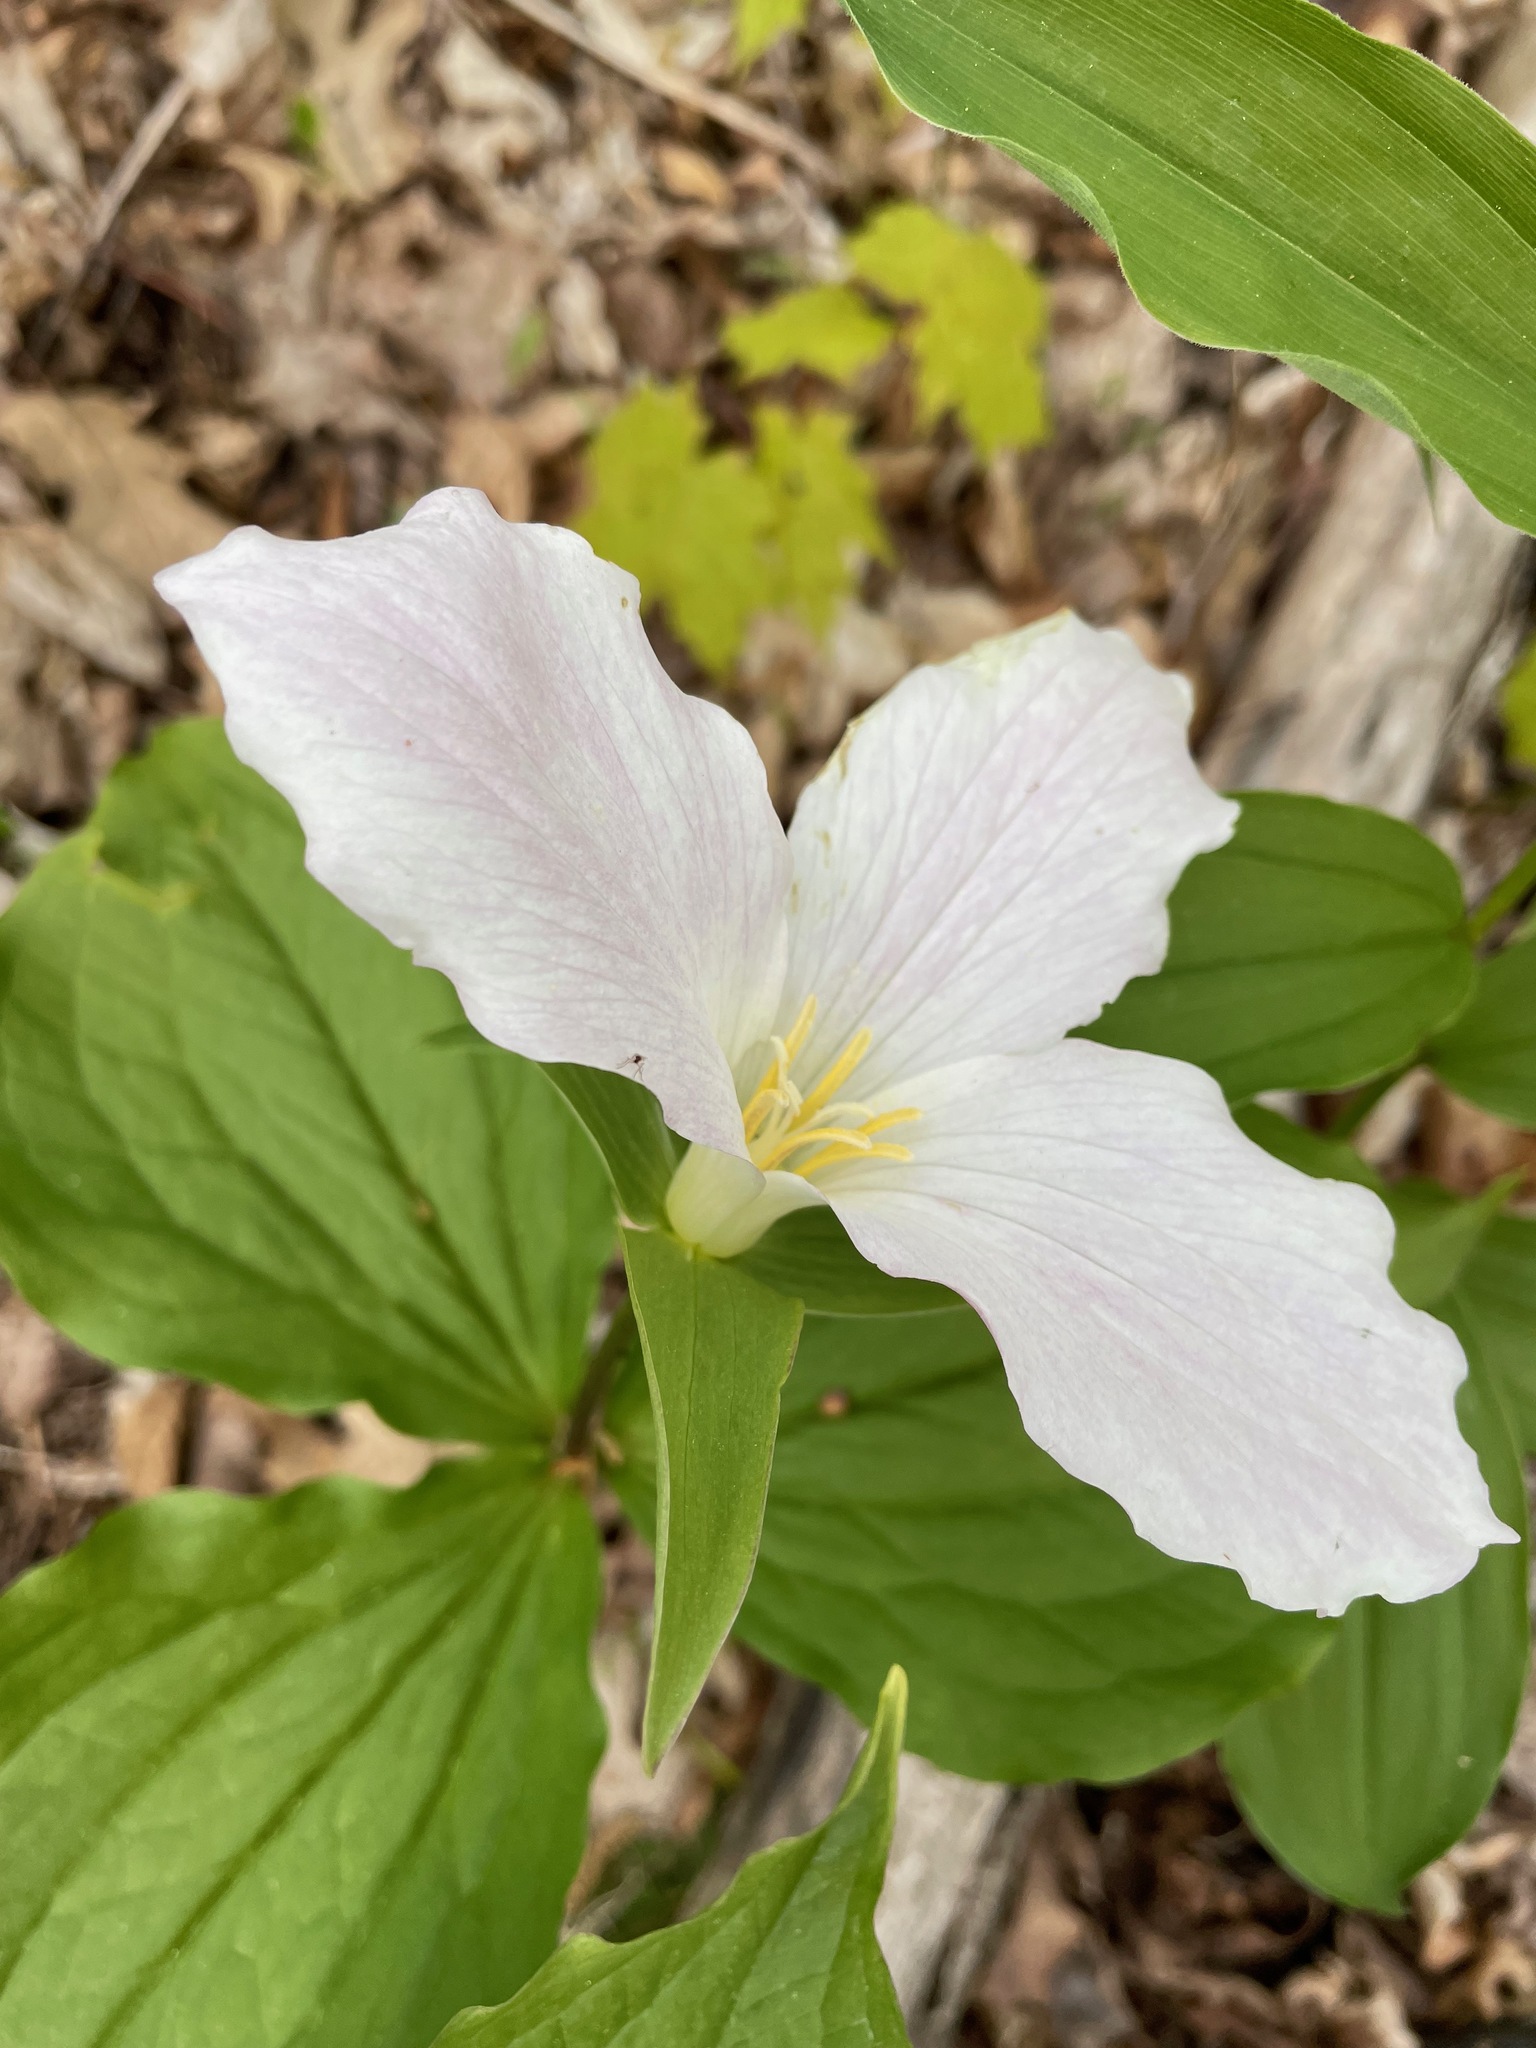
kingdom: Plantae
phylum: Tracheophyta
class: Liliopsida
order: Liliales
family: Melanthiaceae
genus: Trillium
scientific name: Trillium grandiflorum
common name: Great white trillium
